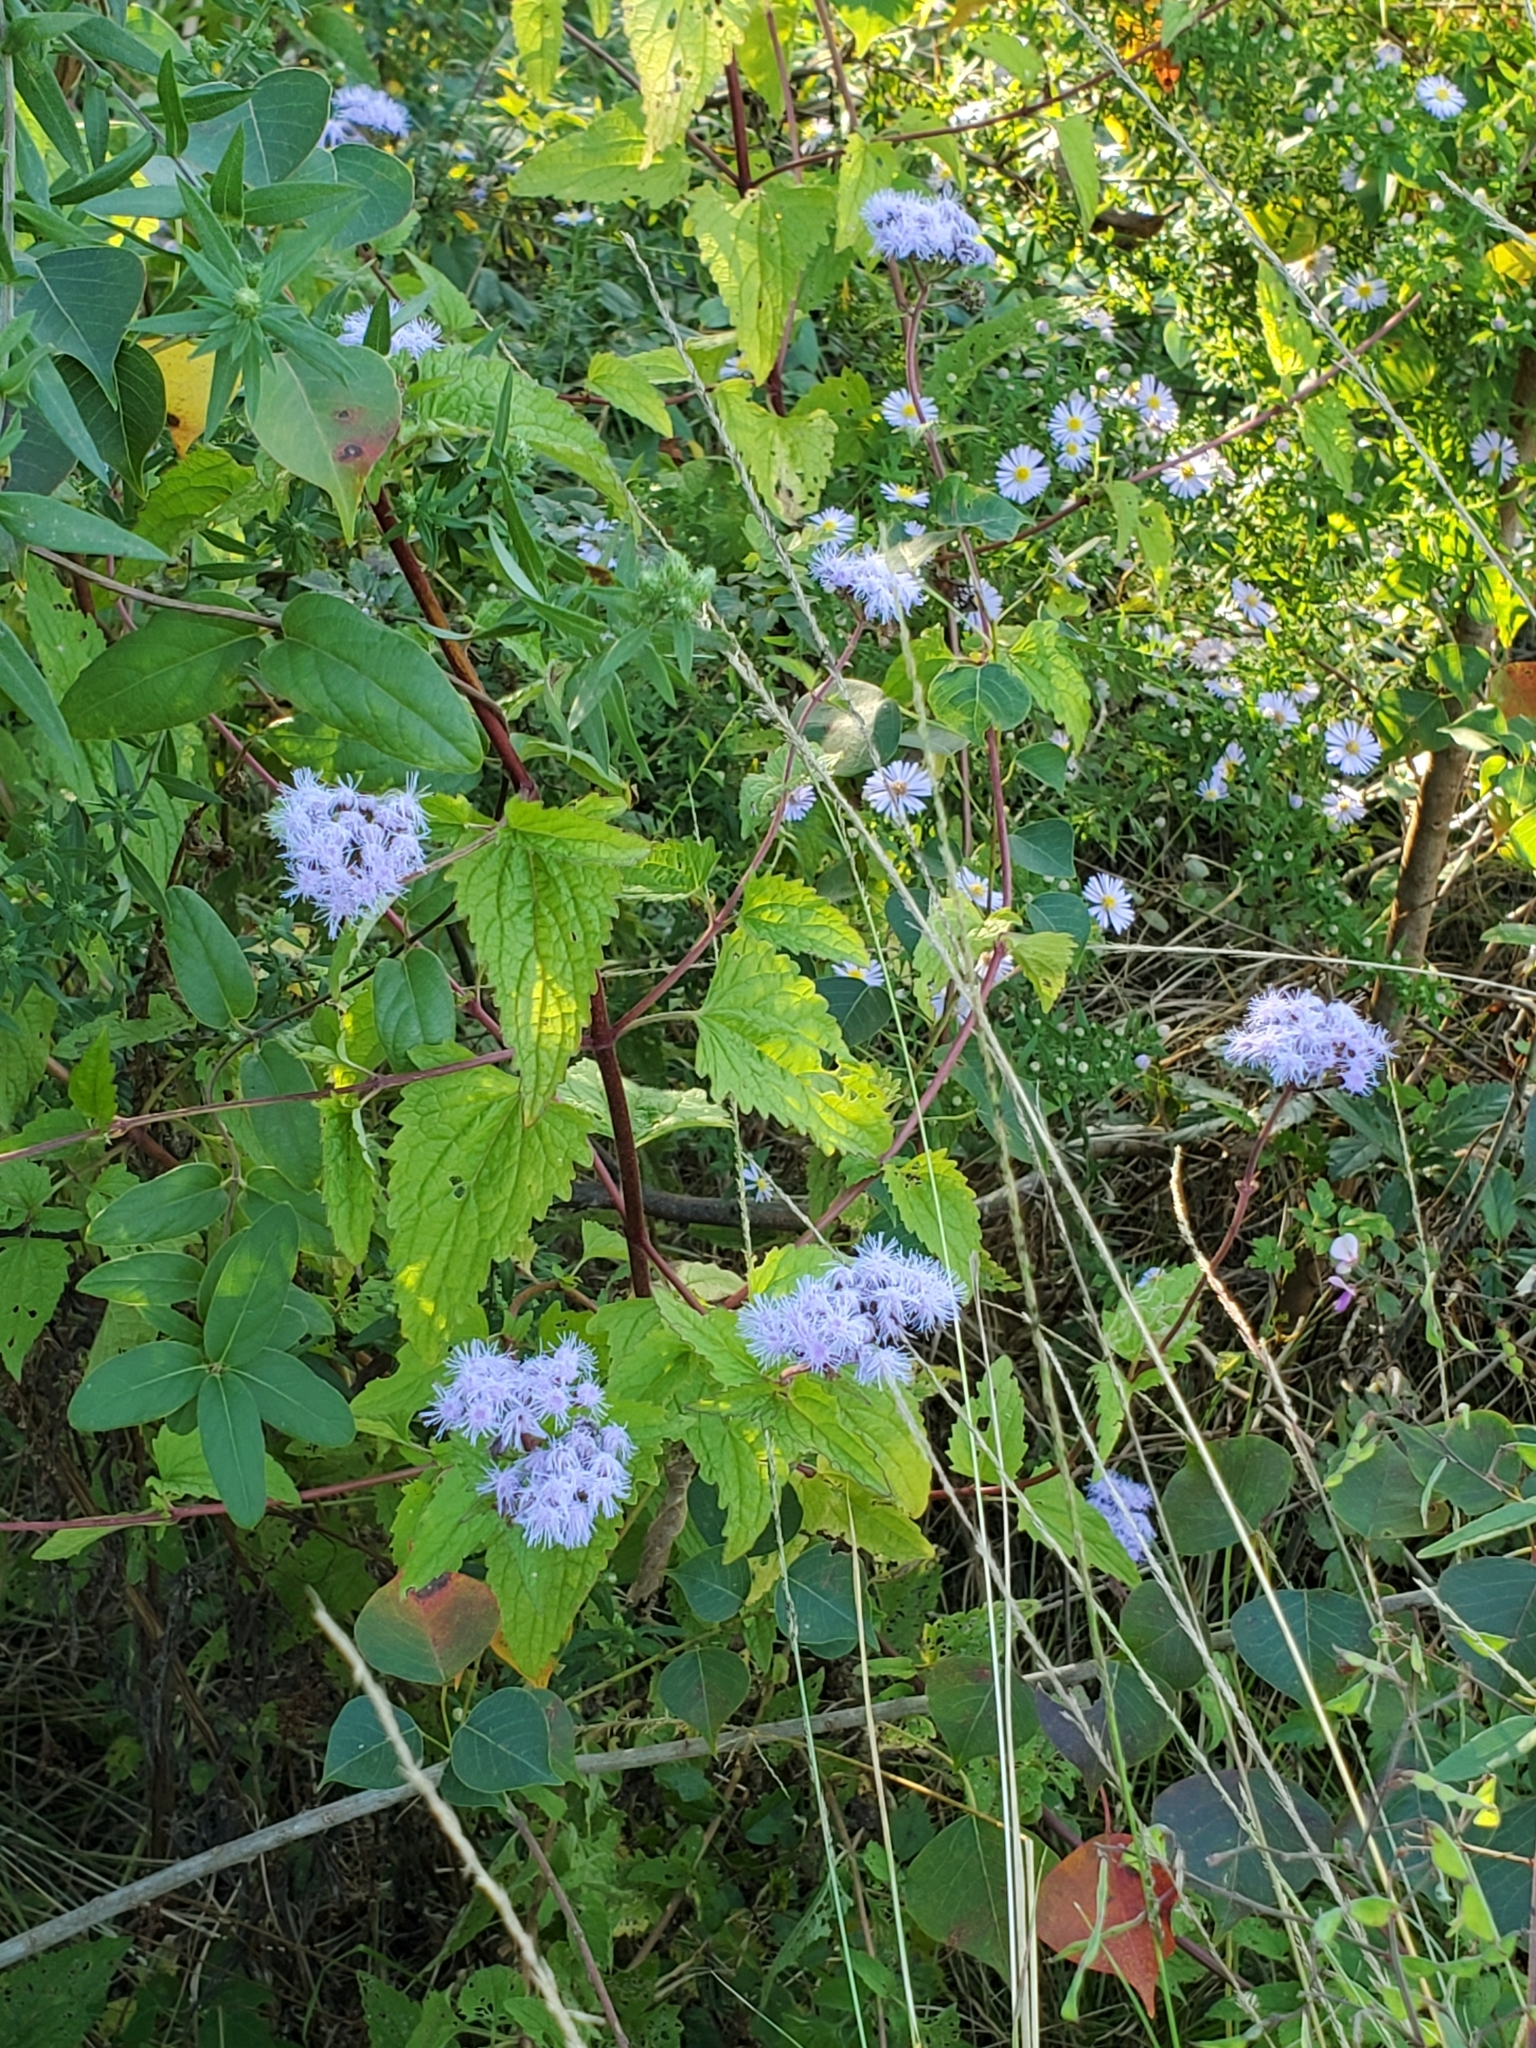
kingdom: Plantae
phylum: Tracheophyta
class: Magnoliopsida
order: Asterales
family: Asteraceae
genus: Conoclinium
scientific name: Conoclinium coelestinum
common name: Blue mistflower
